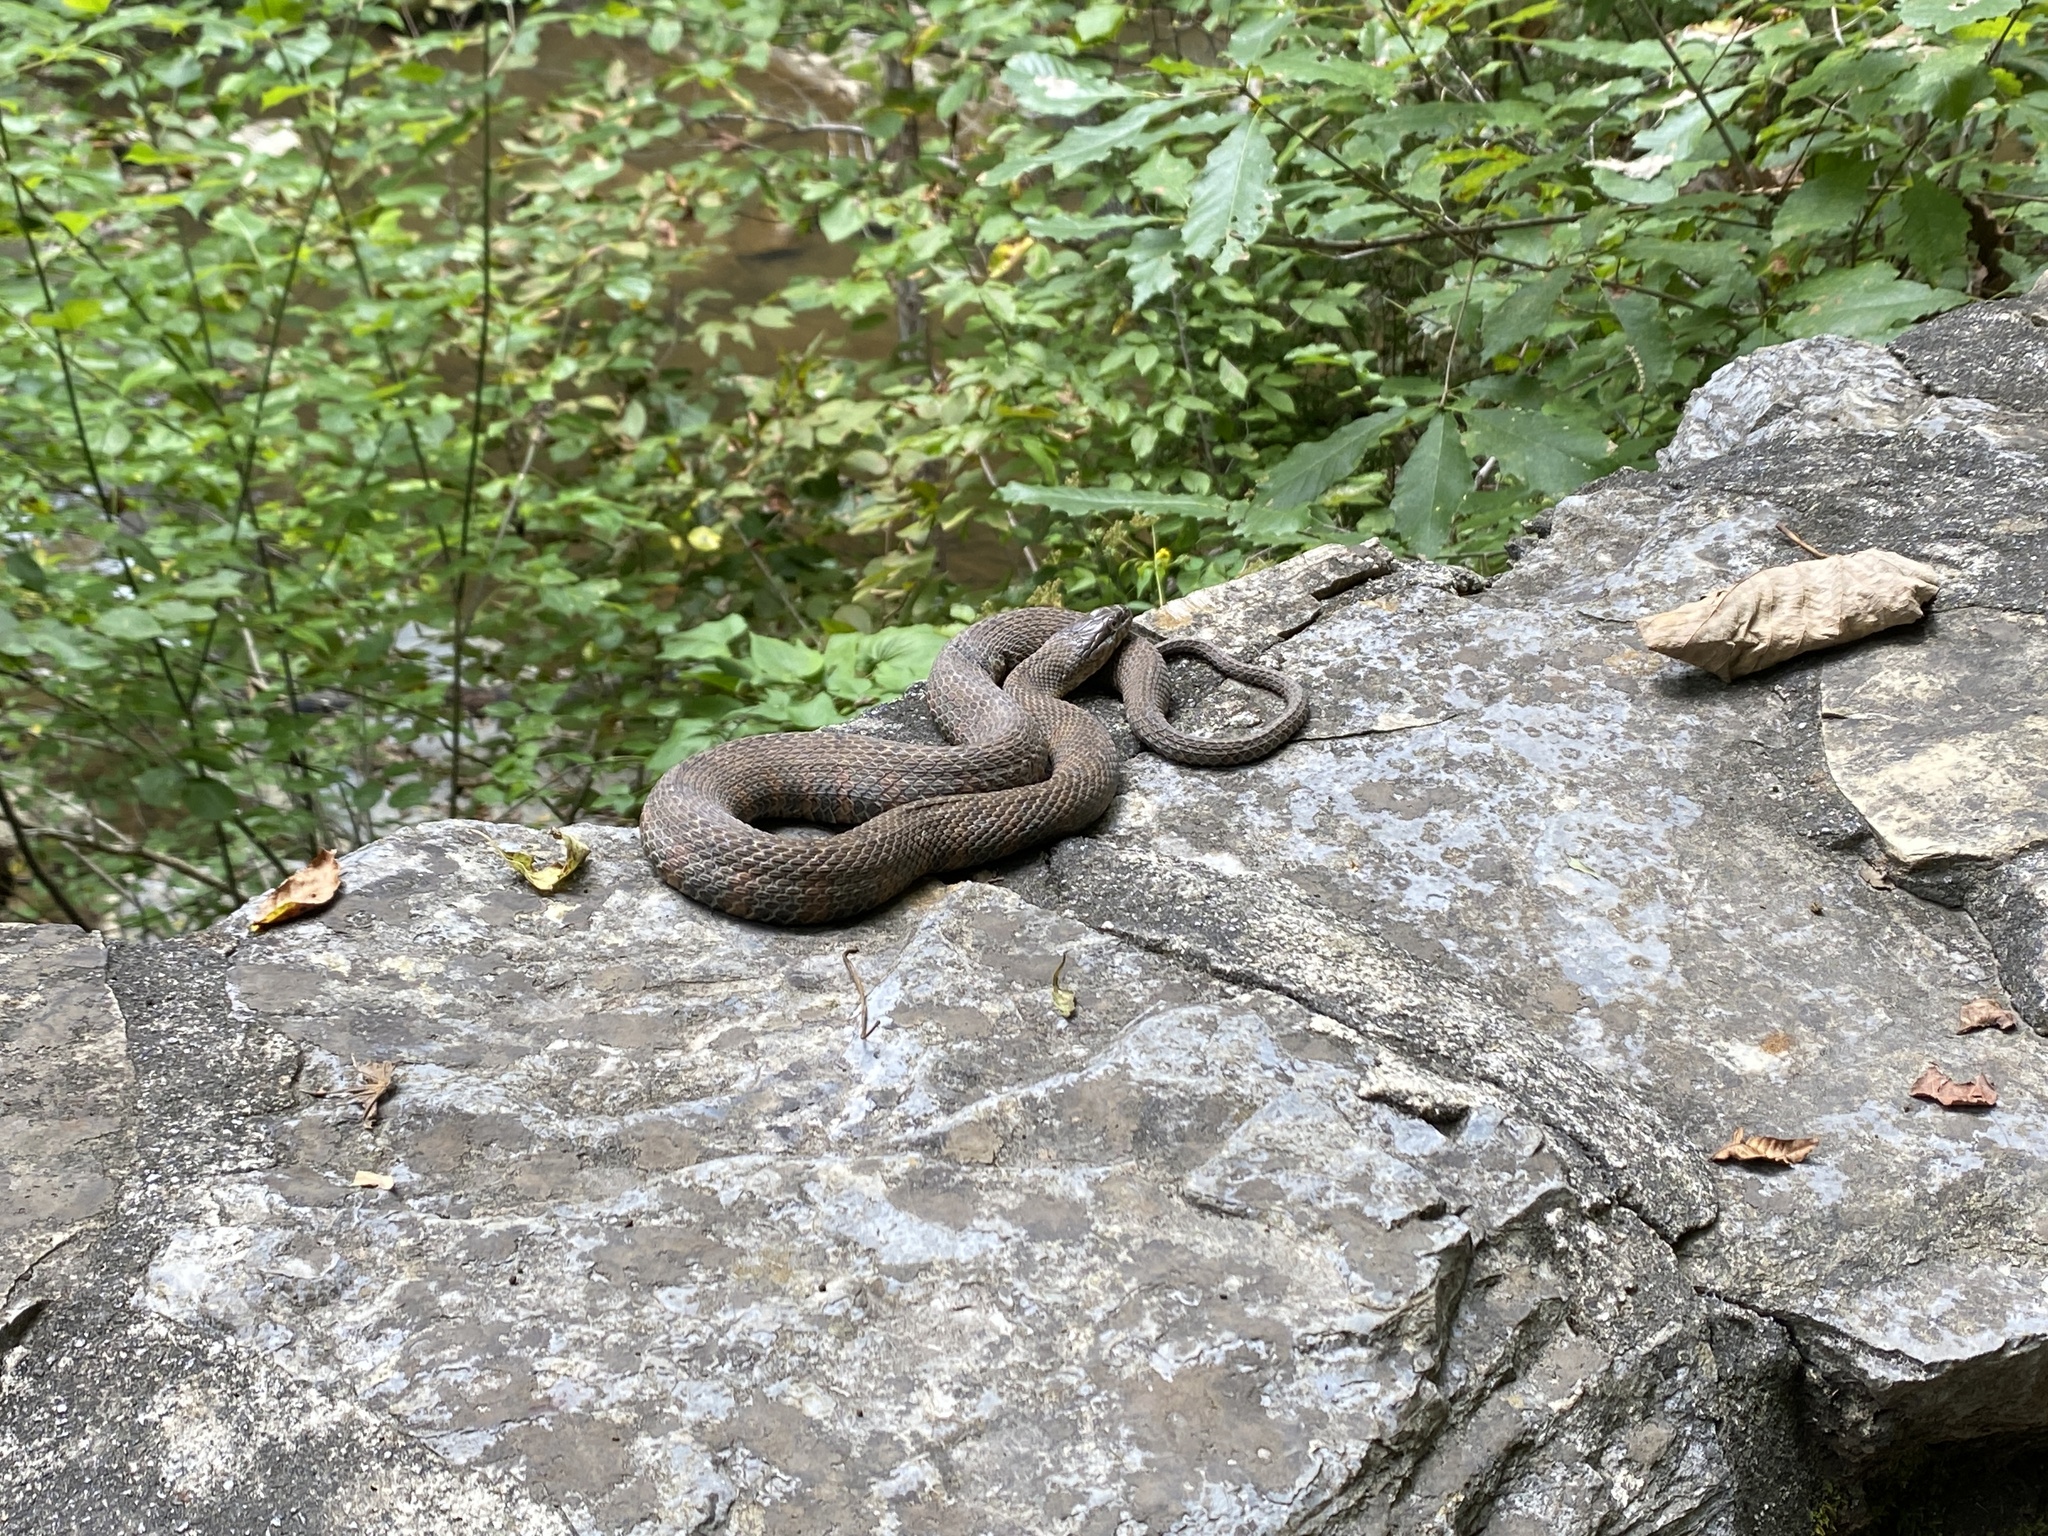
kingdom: Animalia
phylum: Chordata
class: Squamata
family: Colubridae
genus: Nerodia
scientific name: Nerodia sipedon
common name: Northern water snake
